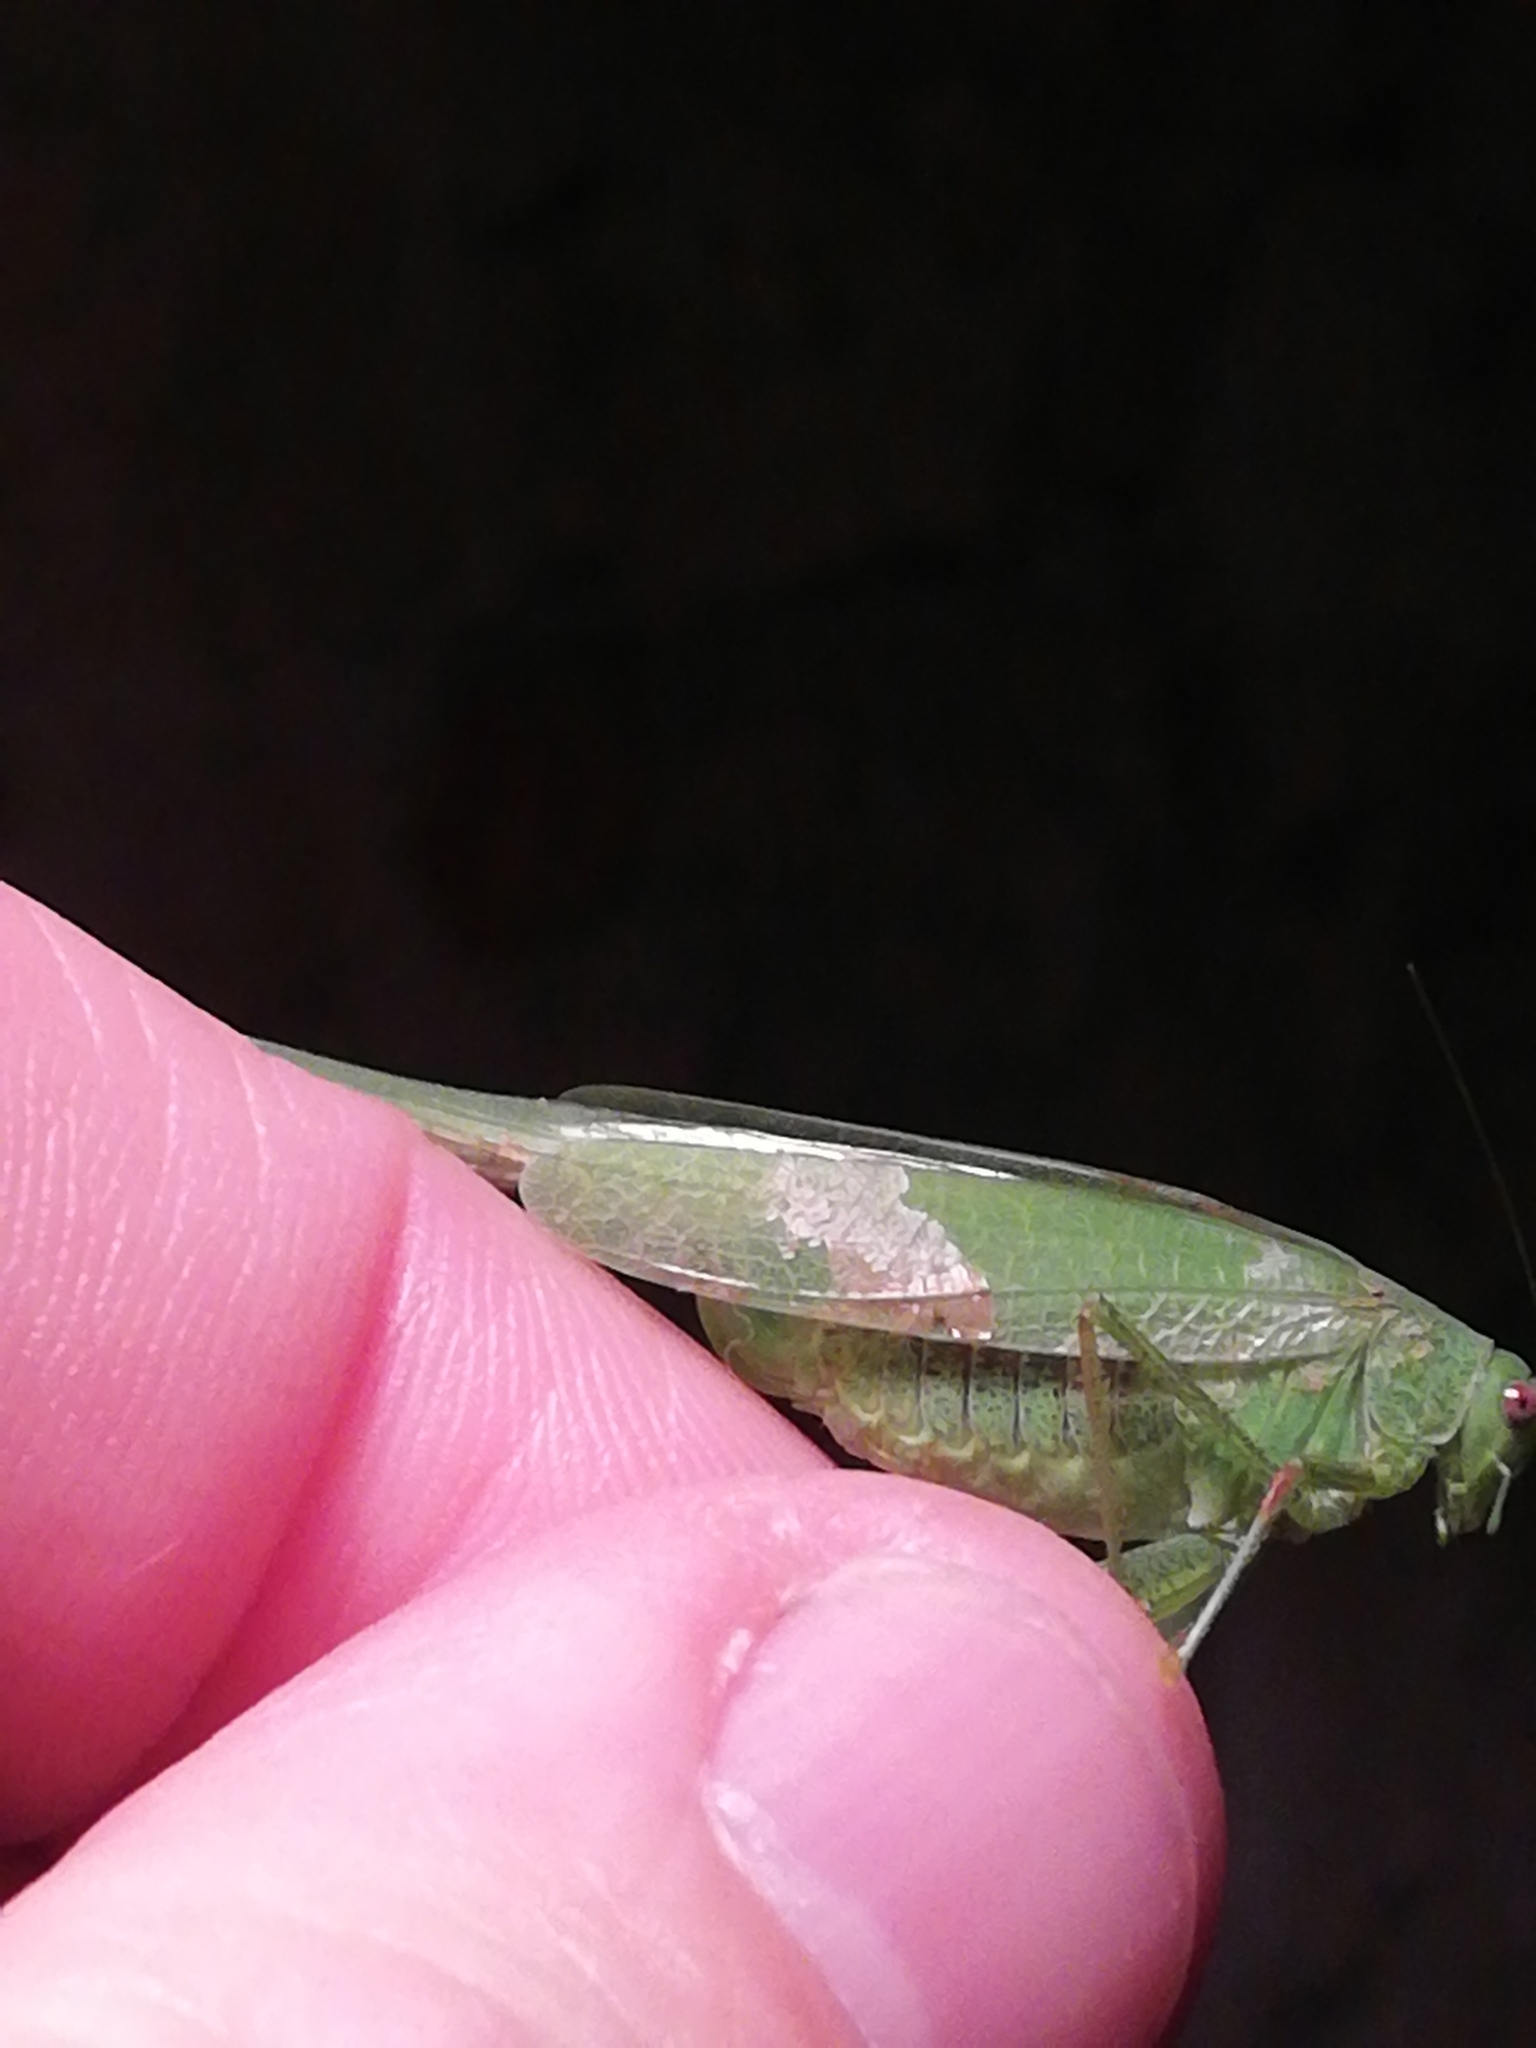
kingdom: Animalia
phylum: Arthropoda
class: Insecta
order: Orthoptera
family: Tettigoniidae
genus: Phaneroptera
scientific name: Phaneroptera nana
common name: Southern sickle bush-cricket
